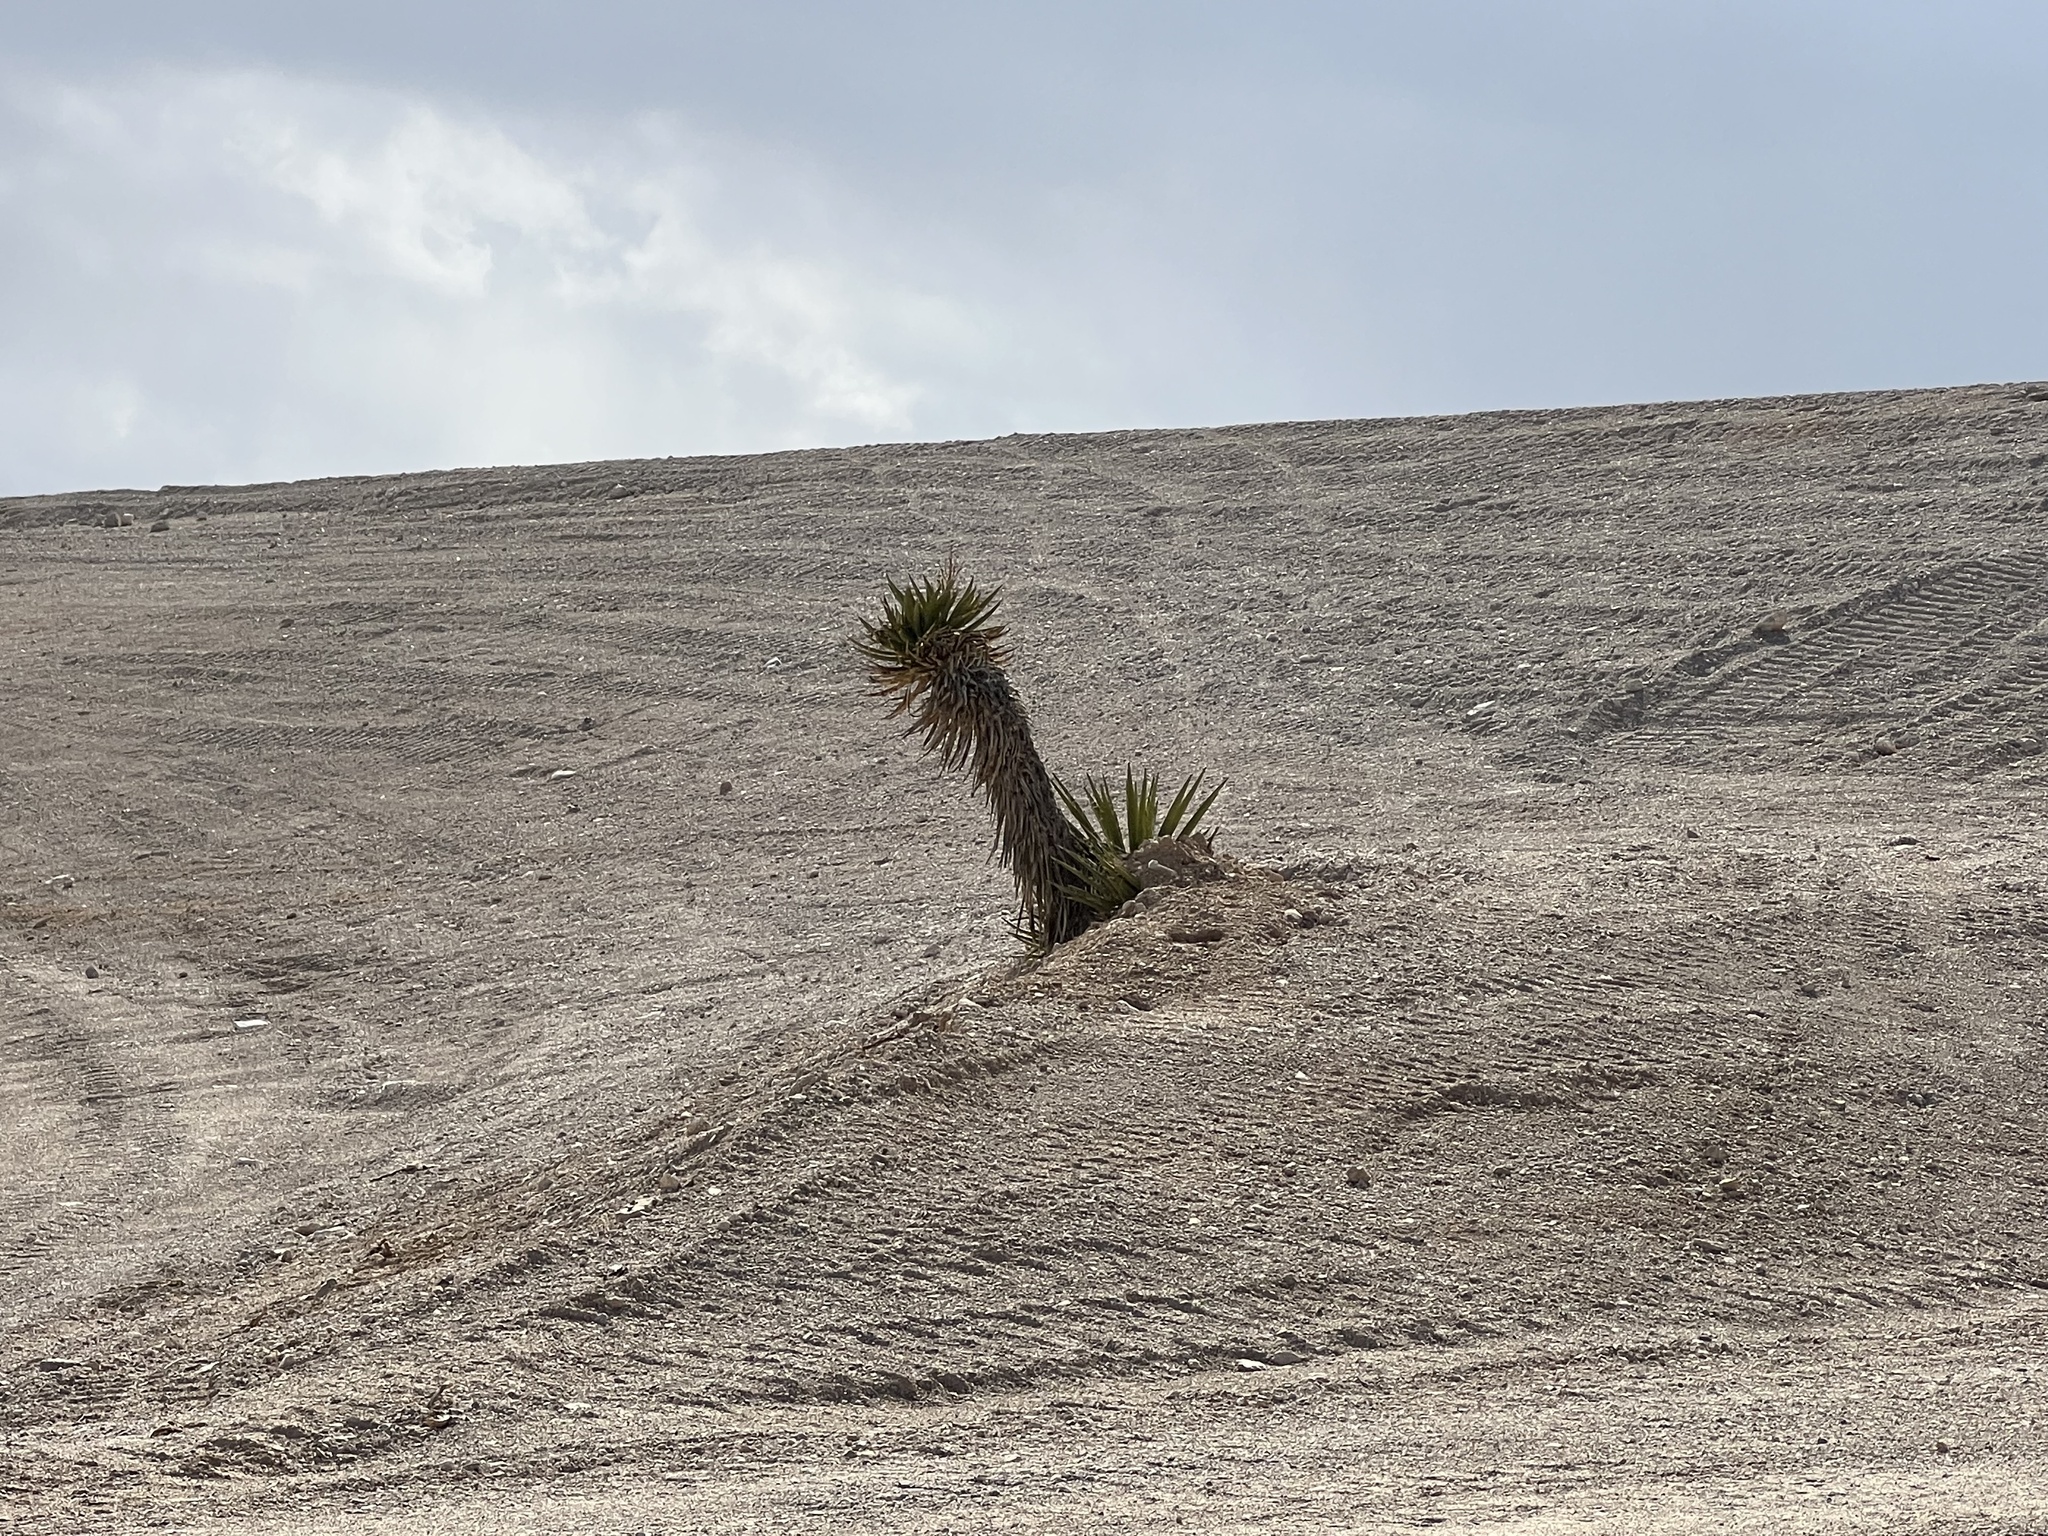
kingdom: Plantae
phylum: Tracheophyta
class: Liliopsida
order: Asparagales
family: Asparagaceae
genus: Yucca
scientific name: Yucca schidigera
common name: Mojave yucca
